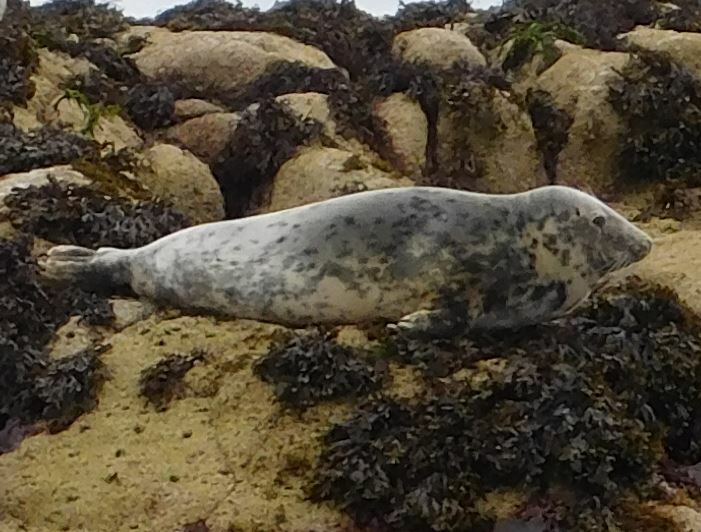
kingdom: Animalia
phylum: Chordata
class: Mammalia
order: Carnivora
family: Phocidae
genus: Halichoerus
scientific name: Halichoerus grypus
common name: Grey seal
